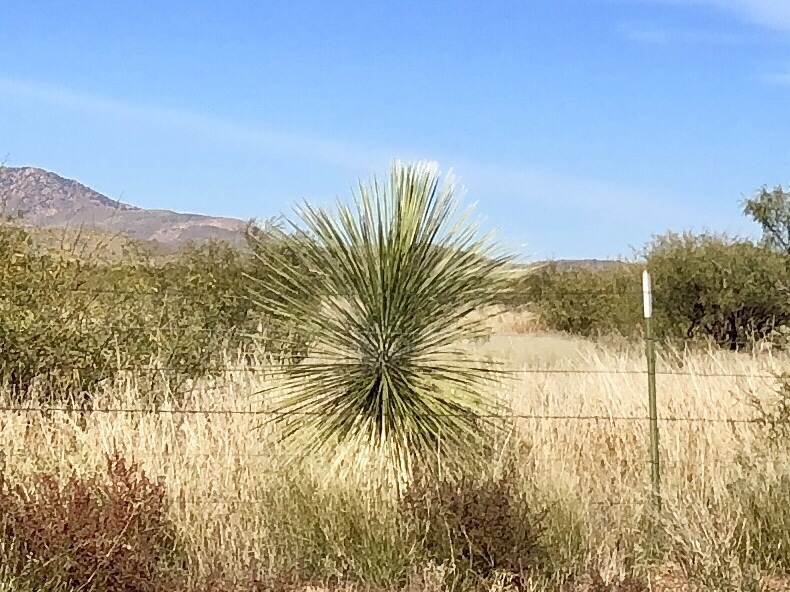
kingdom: Plantae
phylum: Tracheophyta
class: Liliopsida
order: Asparagales
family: Asparagaceae
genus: Yucca
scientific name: Yucca elata
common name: Palmella
